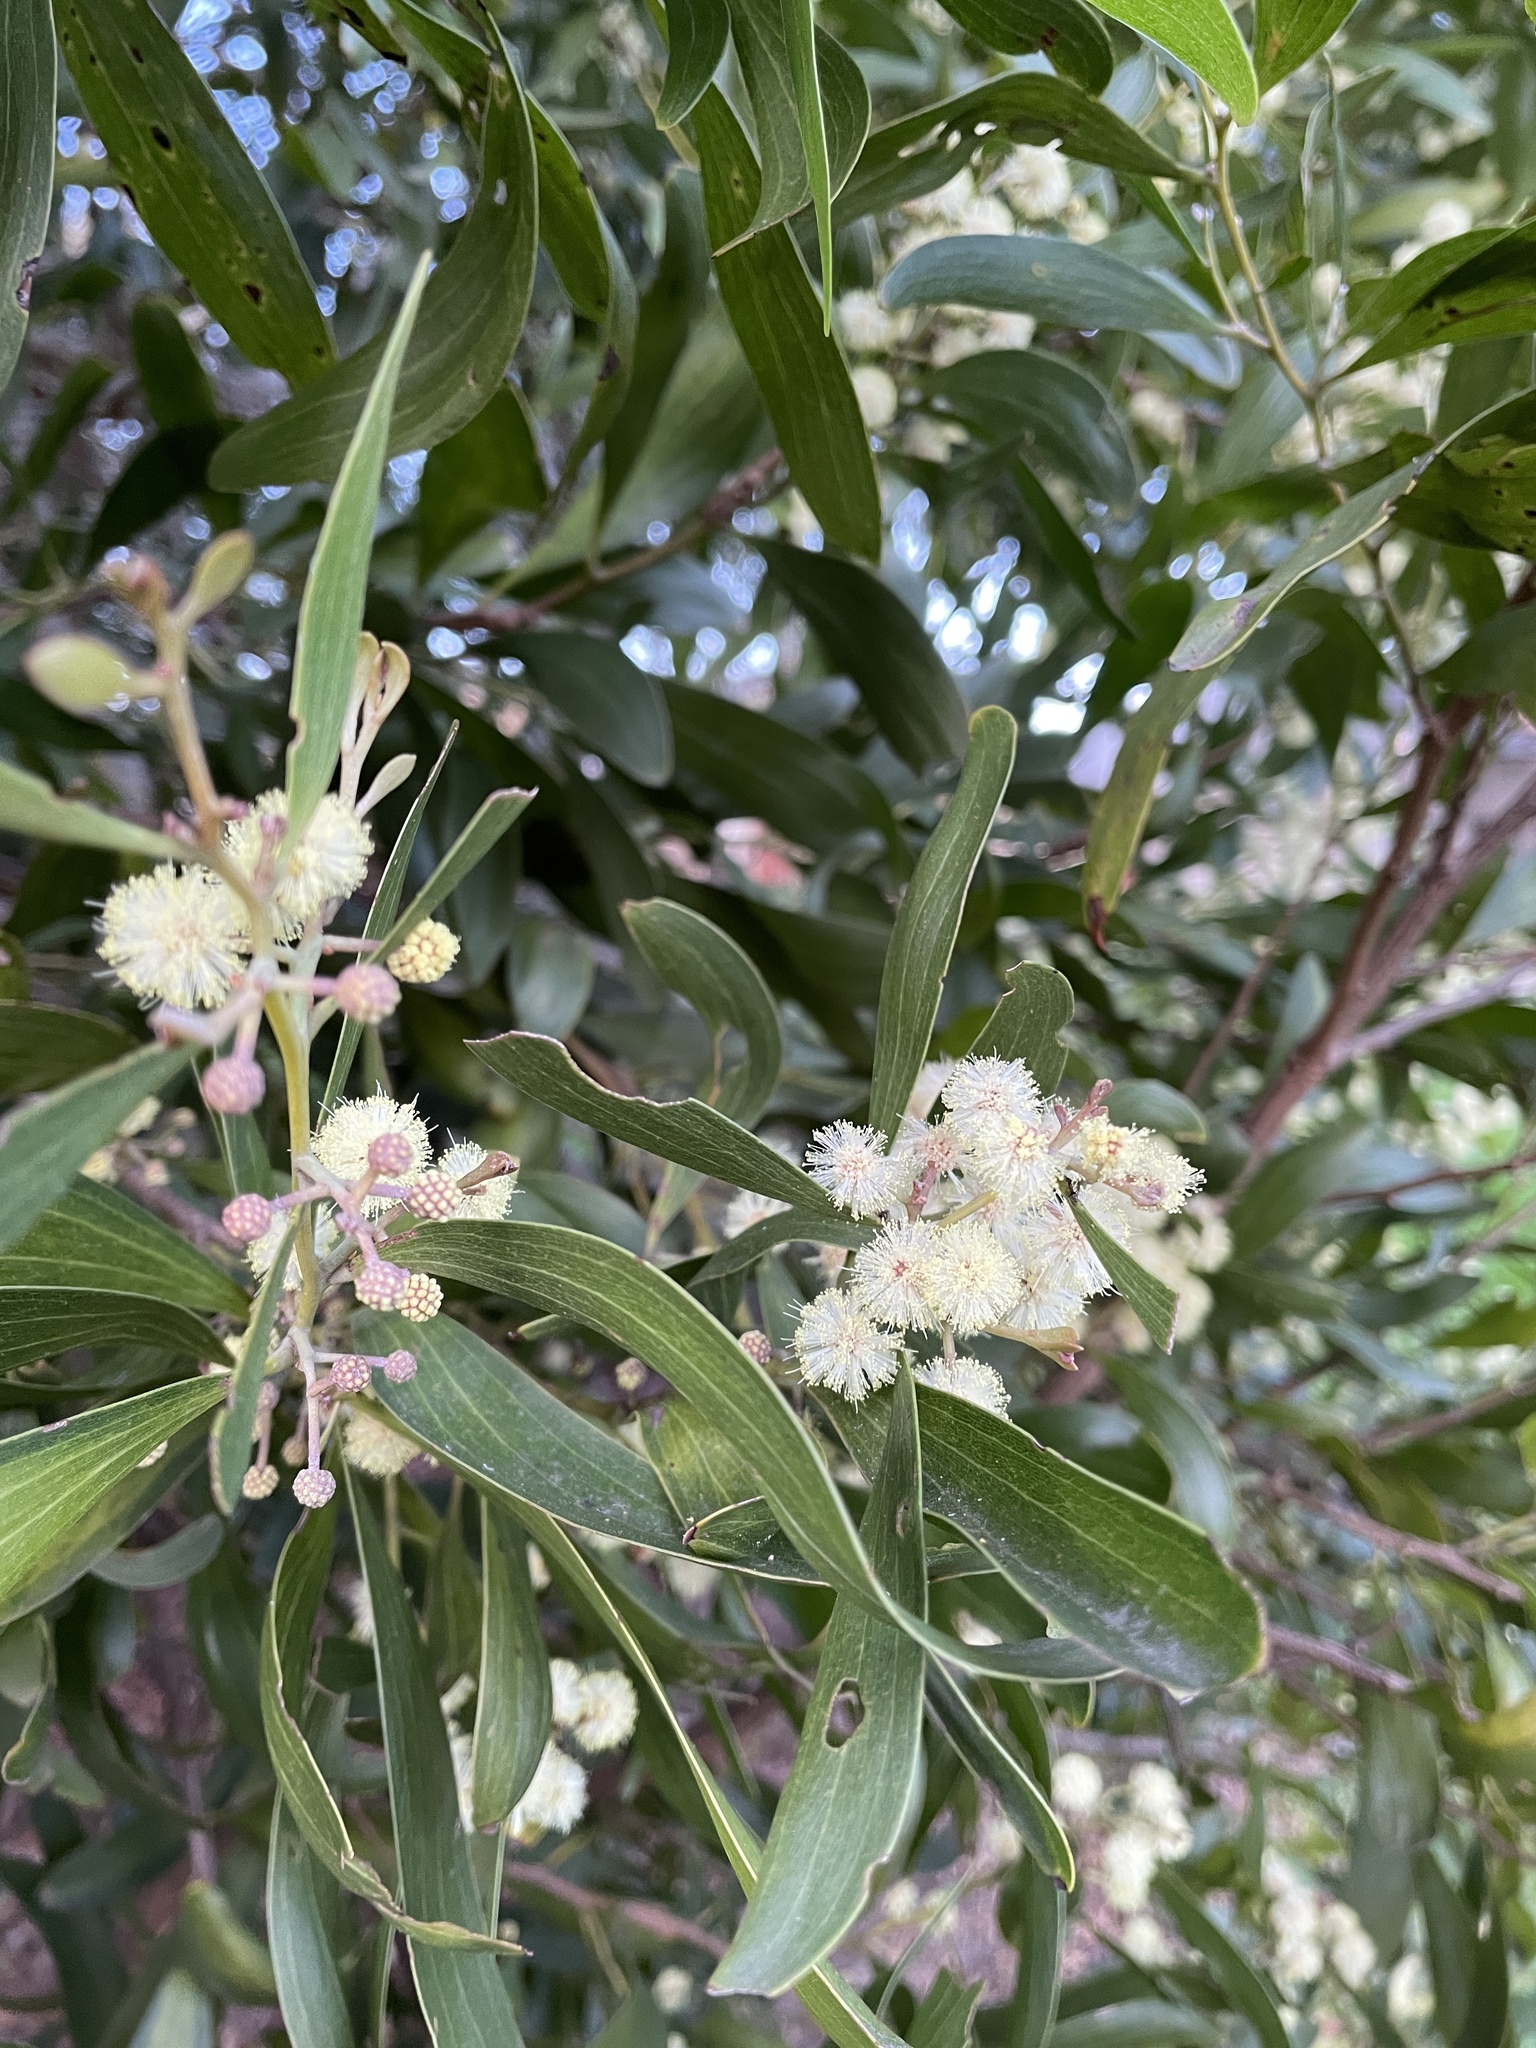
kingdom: Plantae
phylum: Tracheophyta
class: Magnoliopsida
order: Fabales
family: Fabaceae
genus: Acacia
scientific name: Acacia melanoxylon
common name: Blackwood
